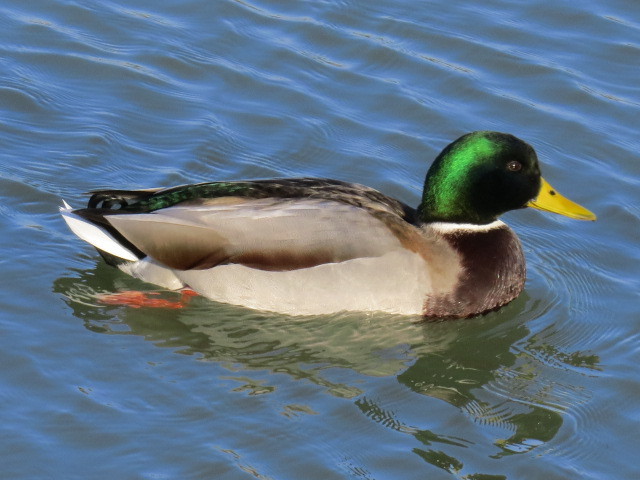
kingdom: Animalia
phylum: Chordata
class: Aves
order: Anseriformes
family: Anatidae
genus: Anas
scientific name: Anas platyrhynchos
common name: Mallard
